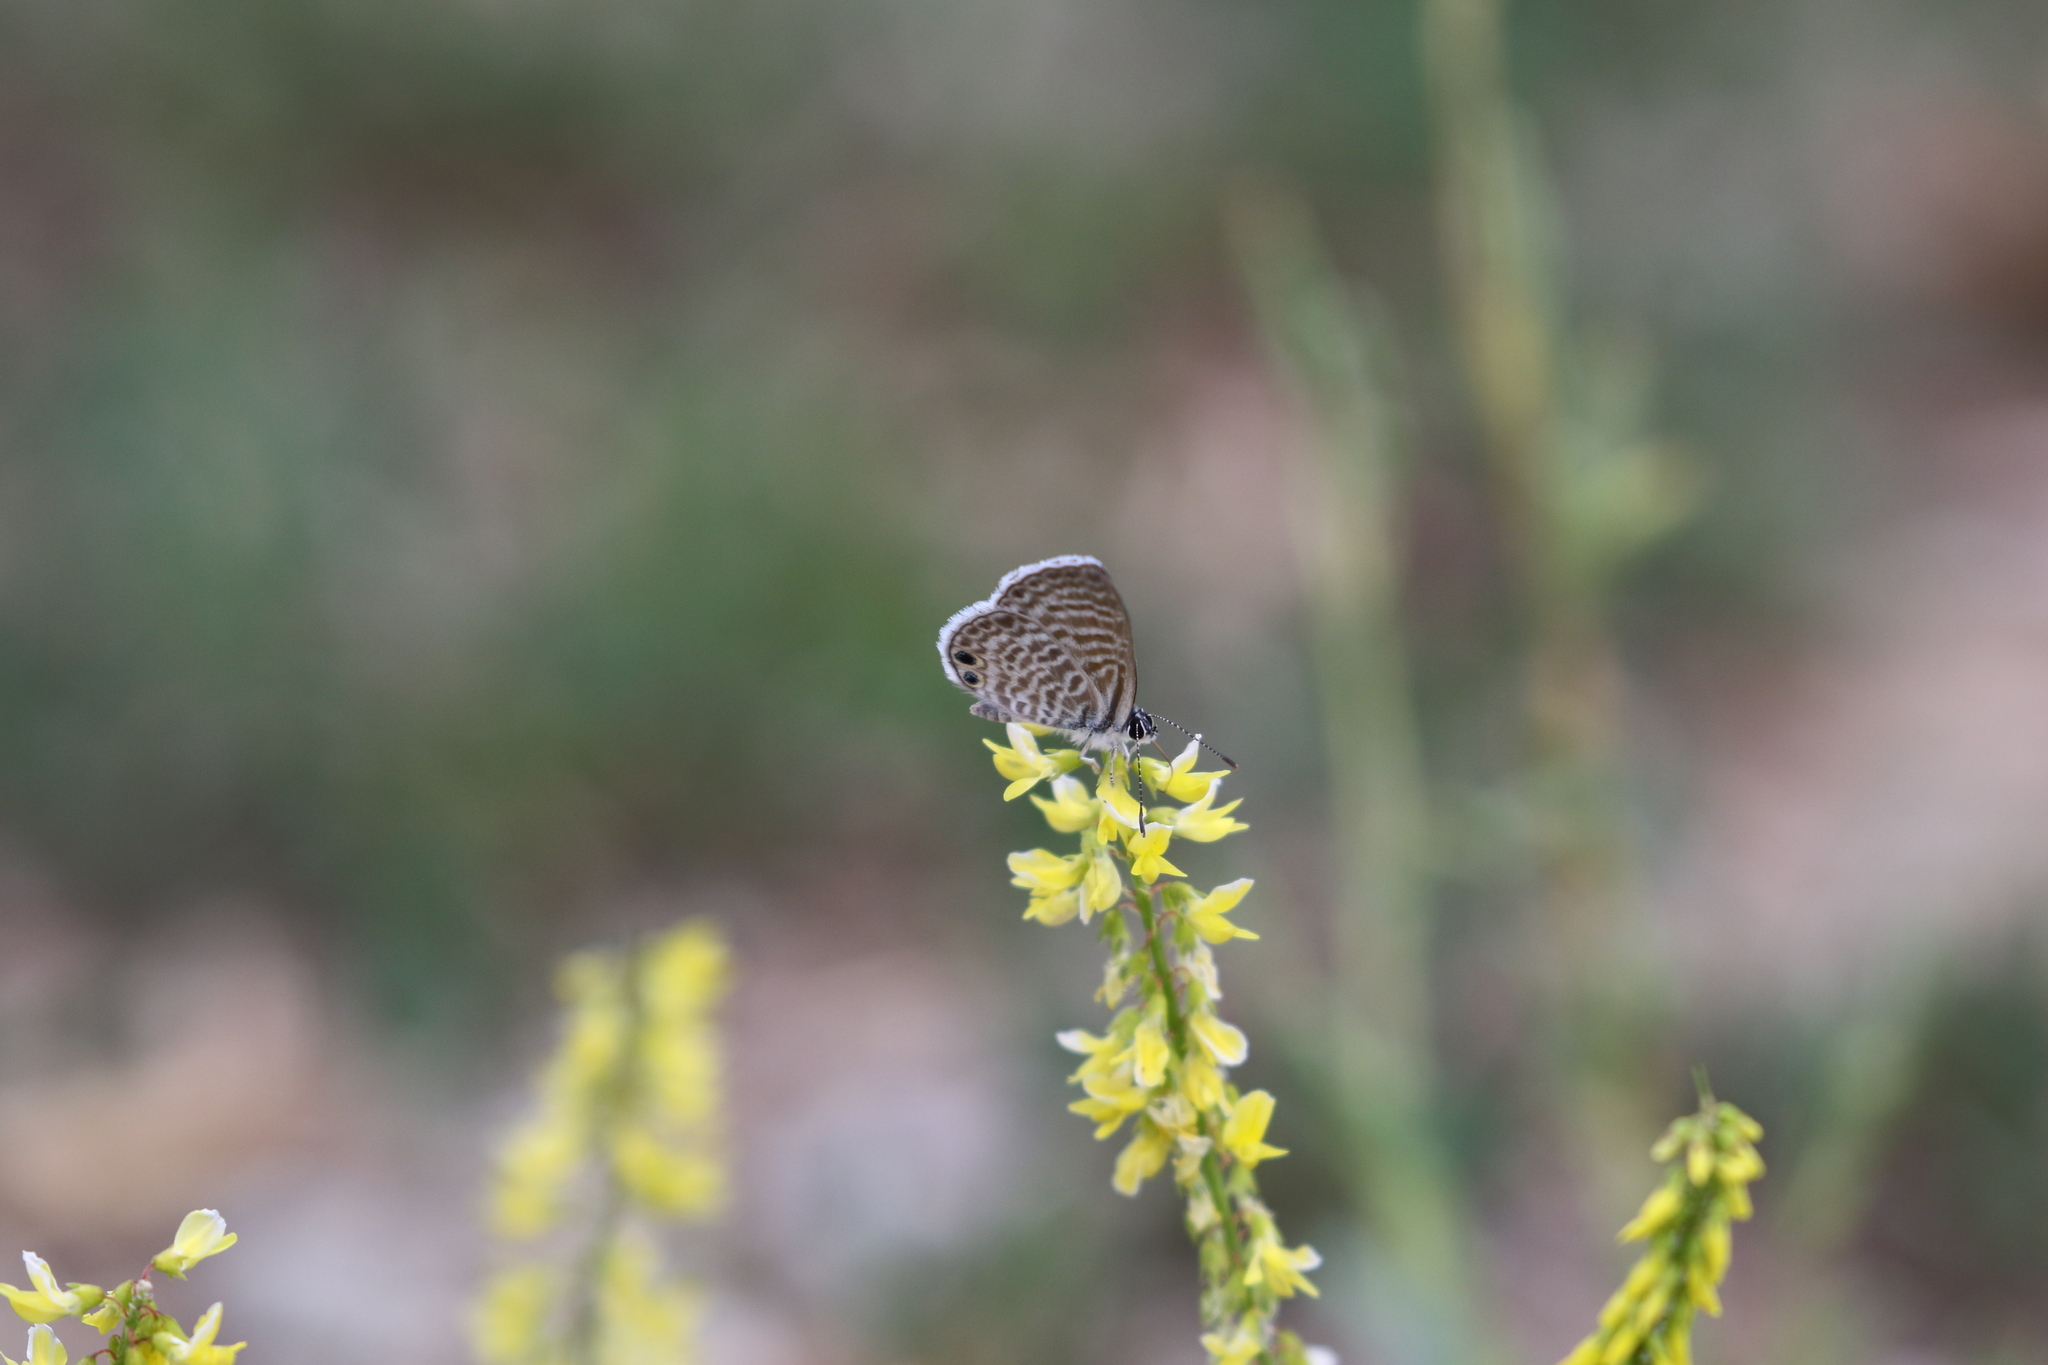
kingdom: Animalia
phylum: Arthropoda
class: Insecta
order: Lepidoptera
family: Lycaenidae
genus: Leptotes
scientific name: Leptotes marina
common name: Marine blue
